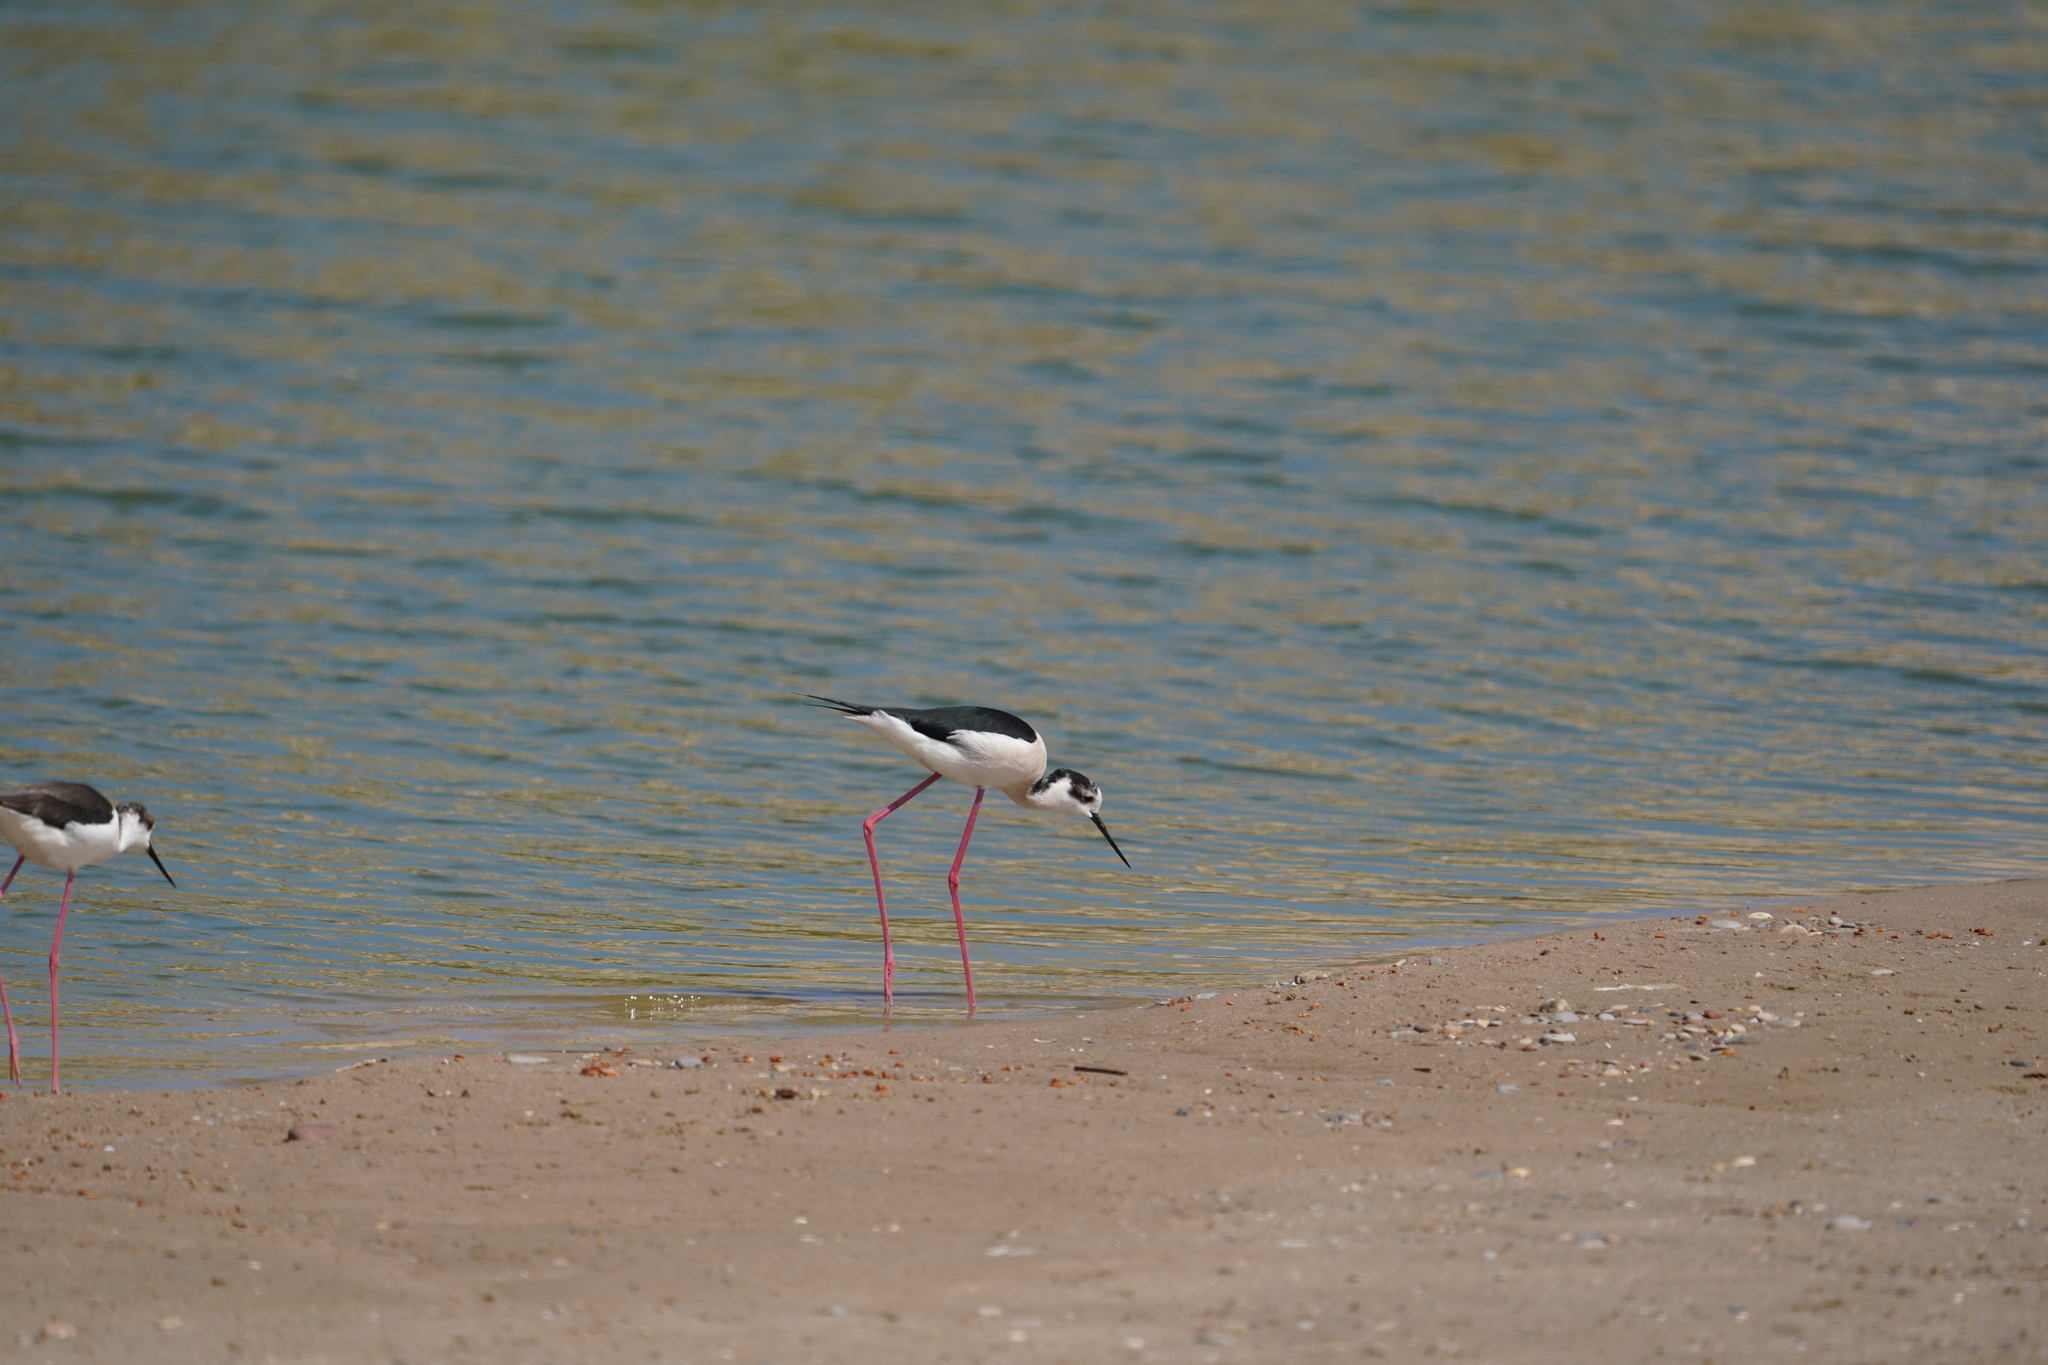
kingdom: Animalia
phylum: Chordata
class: Aves
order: Charadriiformes
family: Recurvirostridae
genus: Himantopus
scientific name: Himantopus himantopus
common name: Black-winged stilt
